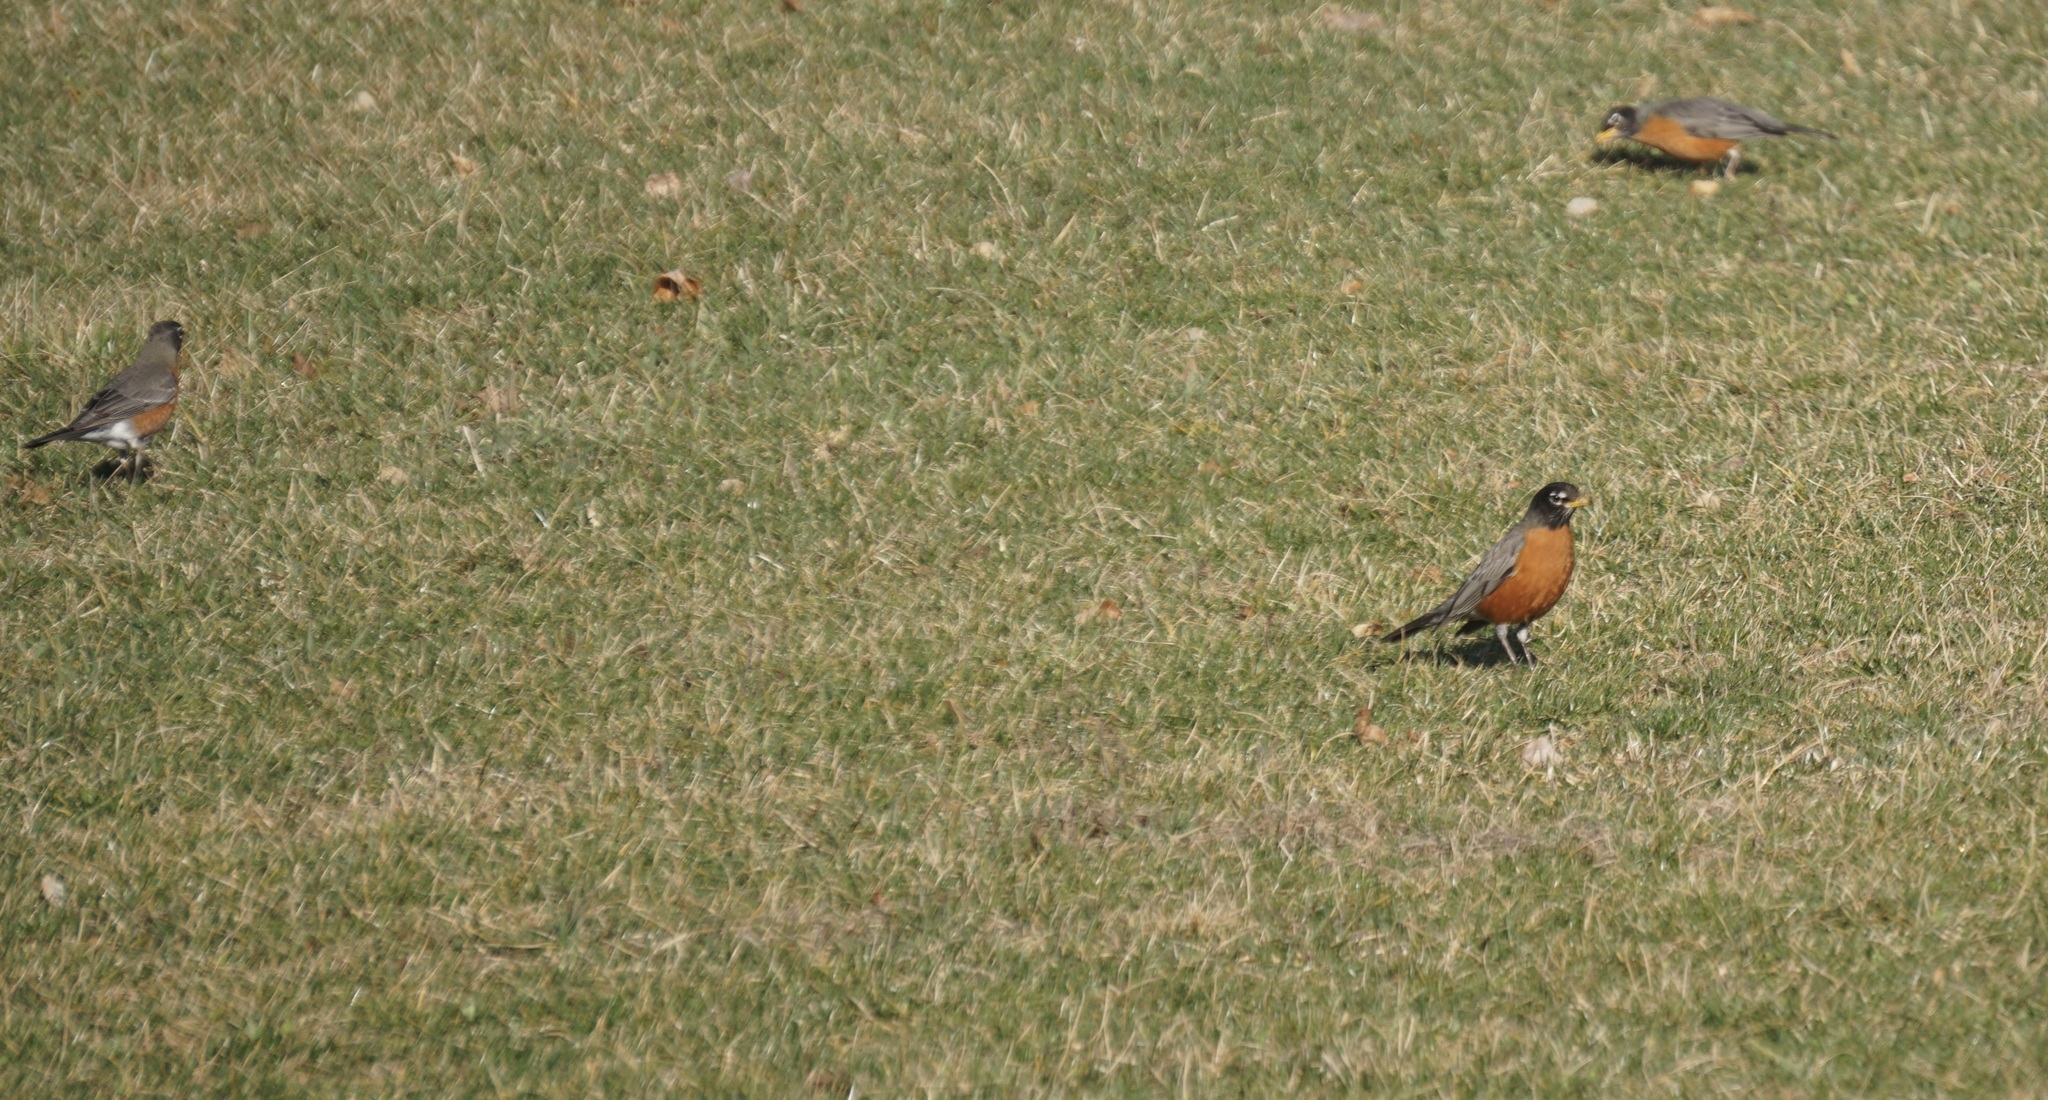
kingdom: Animalia
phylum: Chordata
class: Aves
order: Passeriformes
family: Turdidae
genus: Turdus
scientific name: Turdus migratorius
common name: American robin
